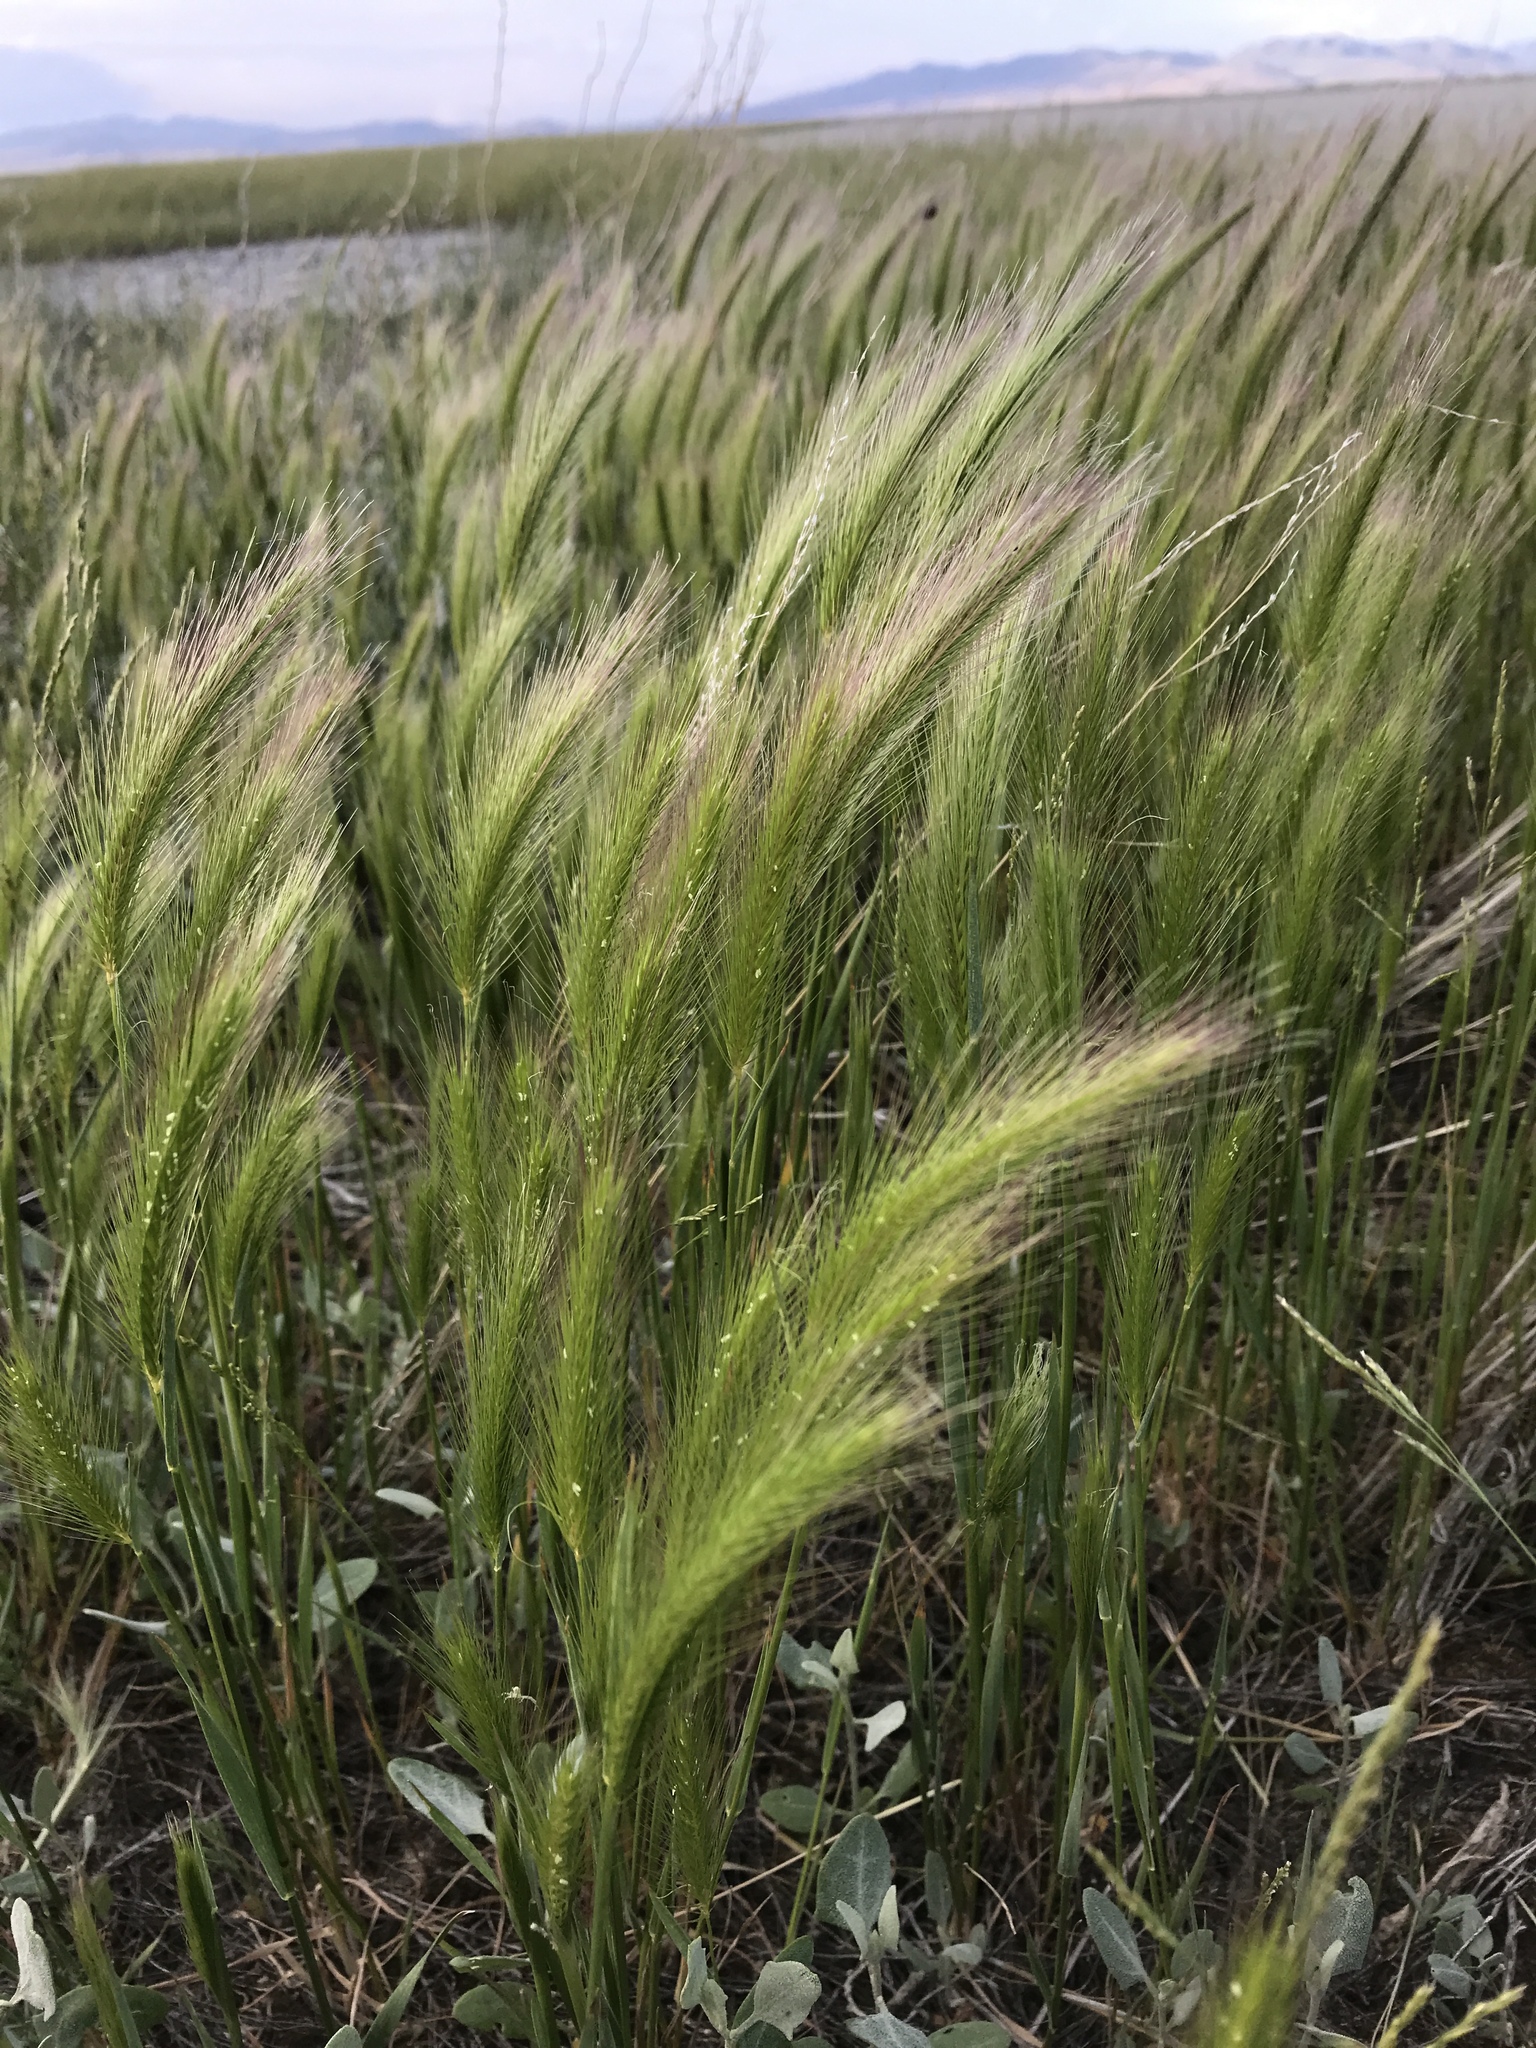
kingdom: Plantae
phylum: Tracheophyta
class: Liliopsida
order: Poales
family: Poaceae
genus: Hordeum
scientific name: Hordeum jubatum
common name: Foxtail barley
